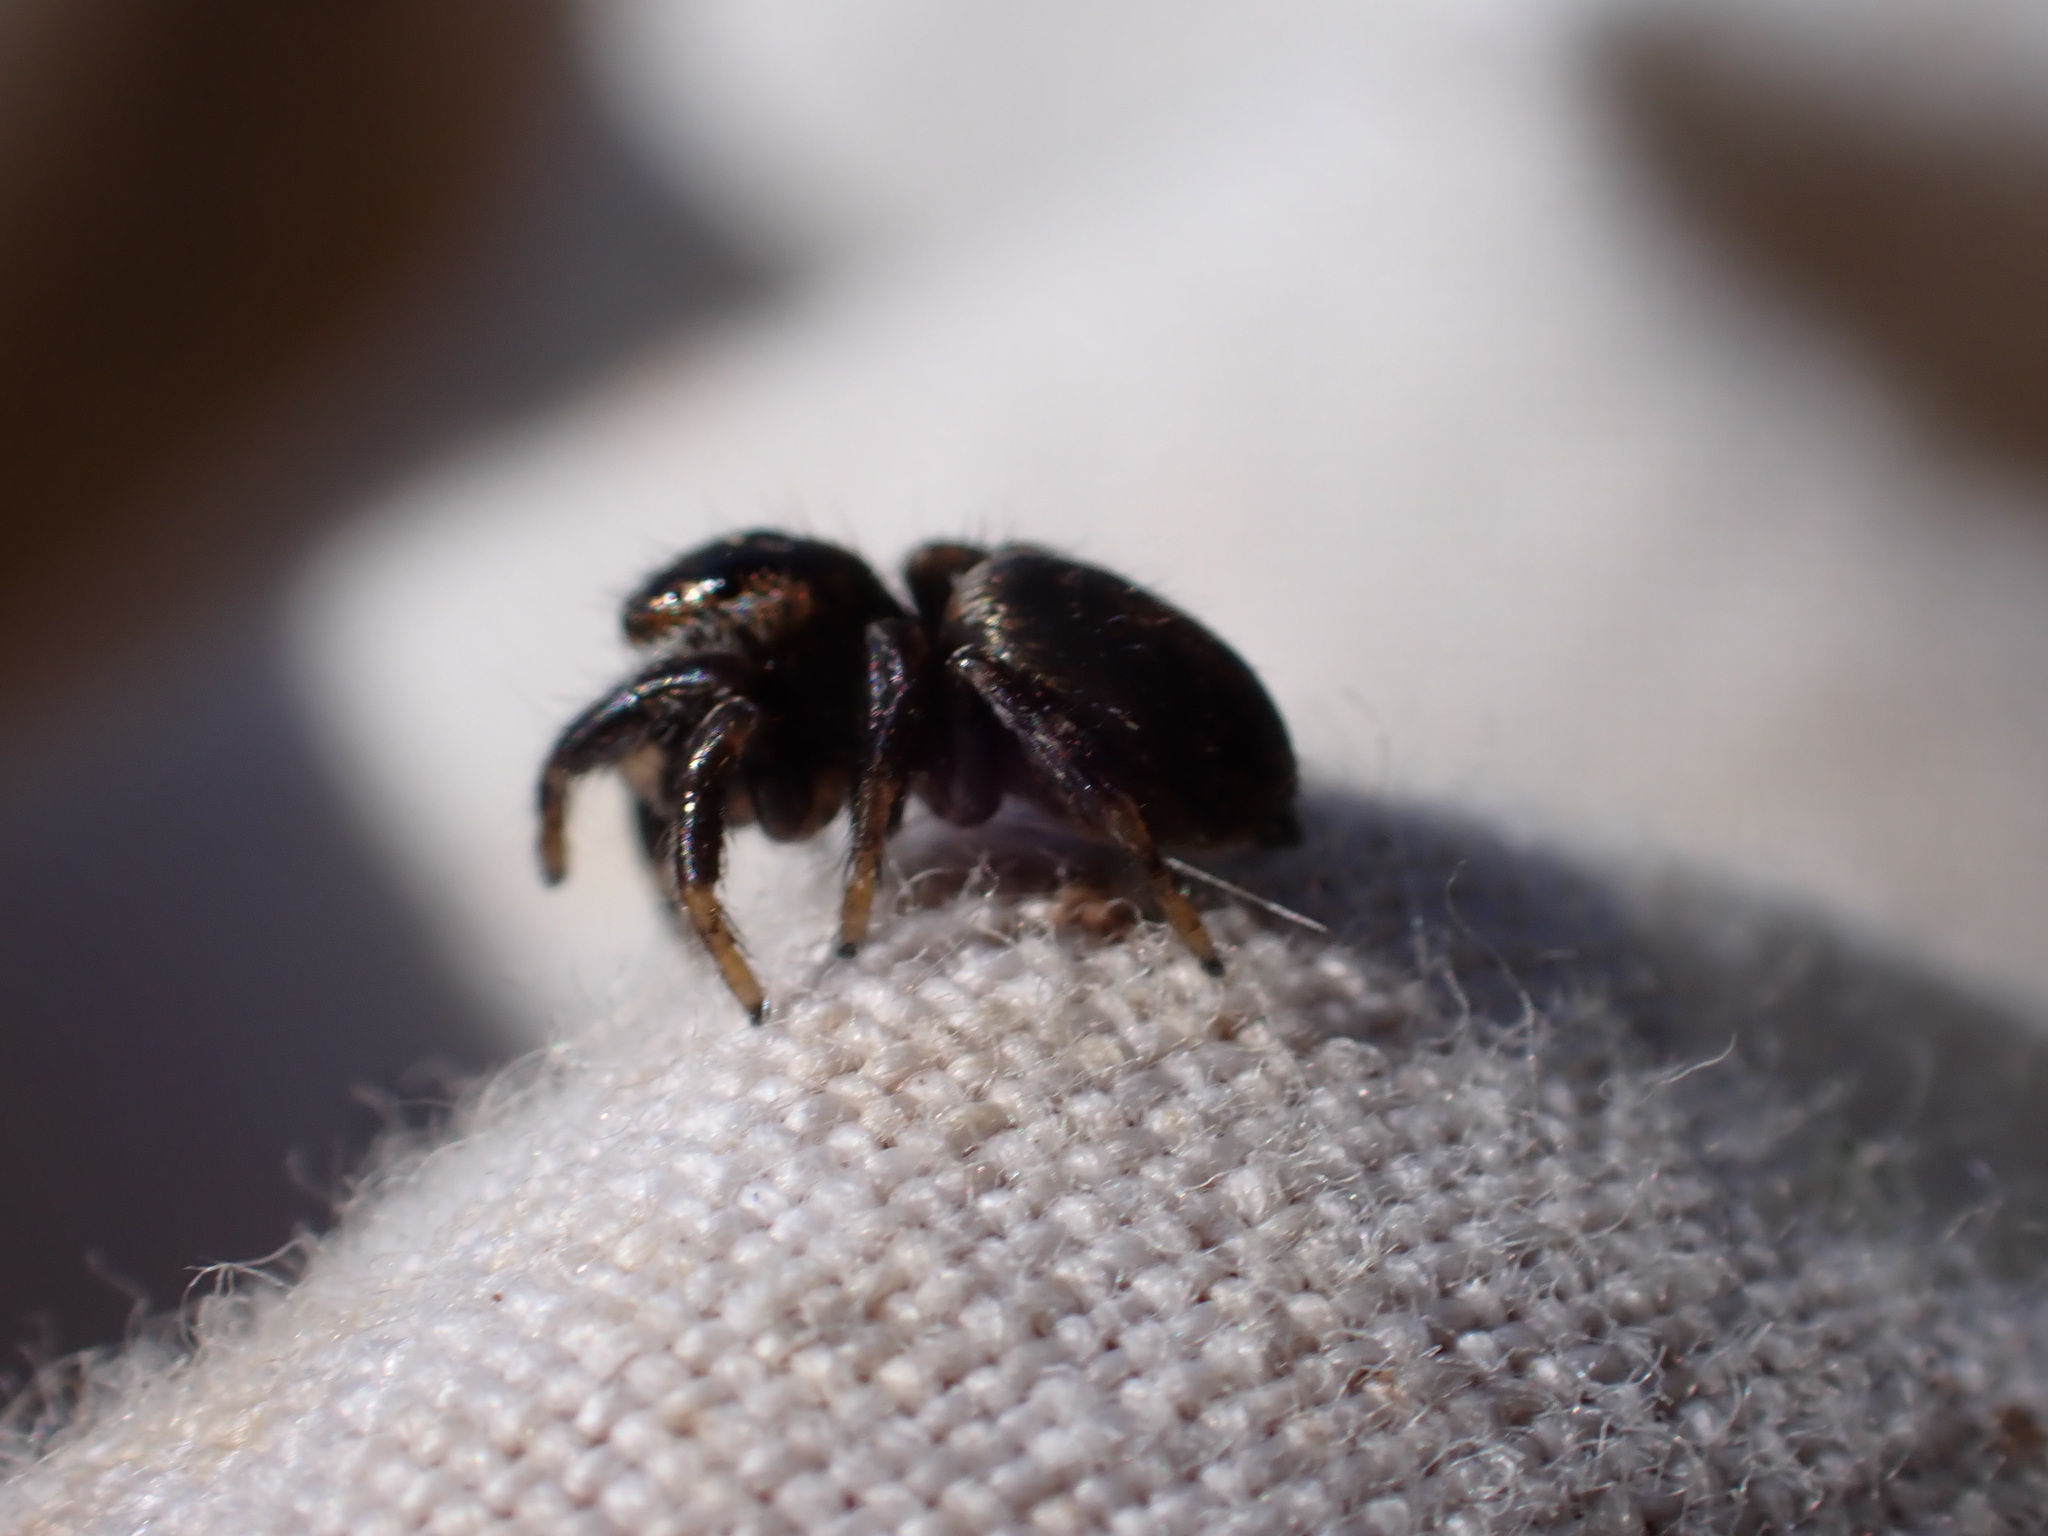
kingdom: Animalia
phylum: Arthropoda
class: Arachnida
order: Araneae
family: Salticidae
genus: Evarcha
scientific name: Evarcha arcuata
